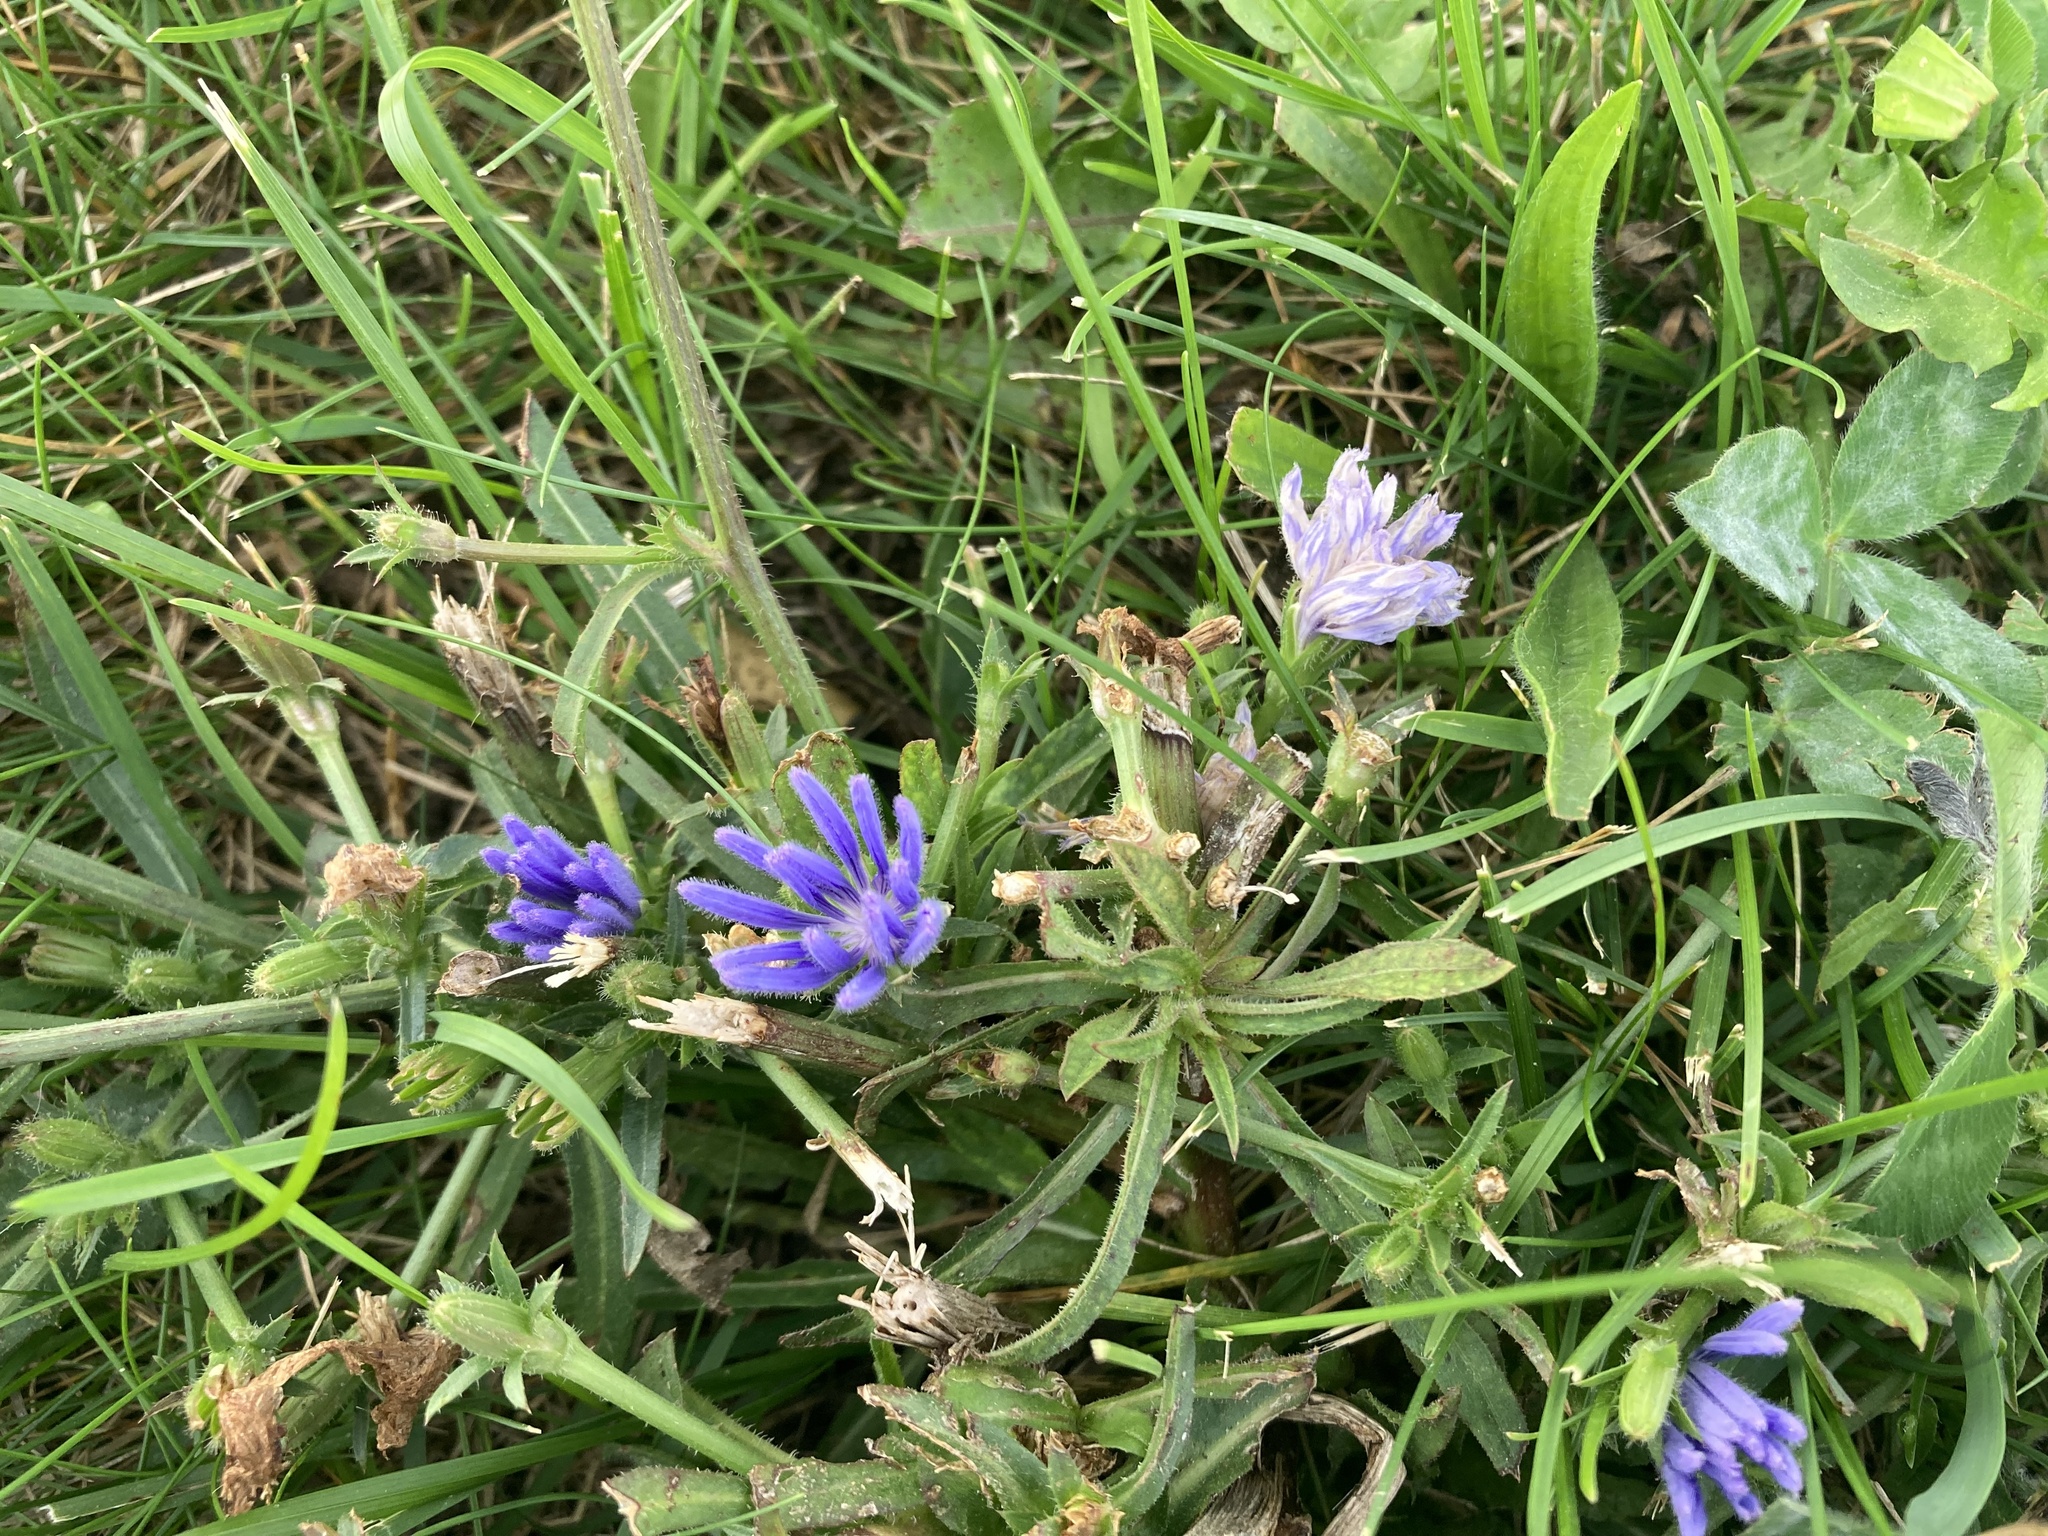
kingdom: Plantae
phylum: Tracheophyta
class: Magnoliopsida
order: Asterales
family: Asteraceae
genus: Cichorium
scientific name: Cichorium intybus
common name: Chicory
